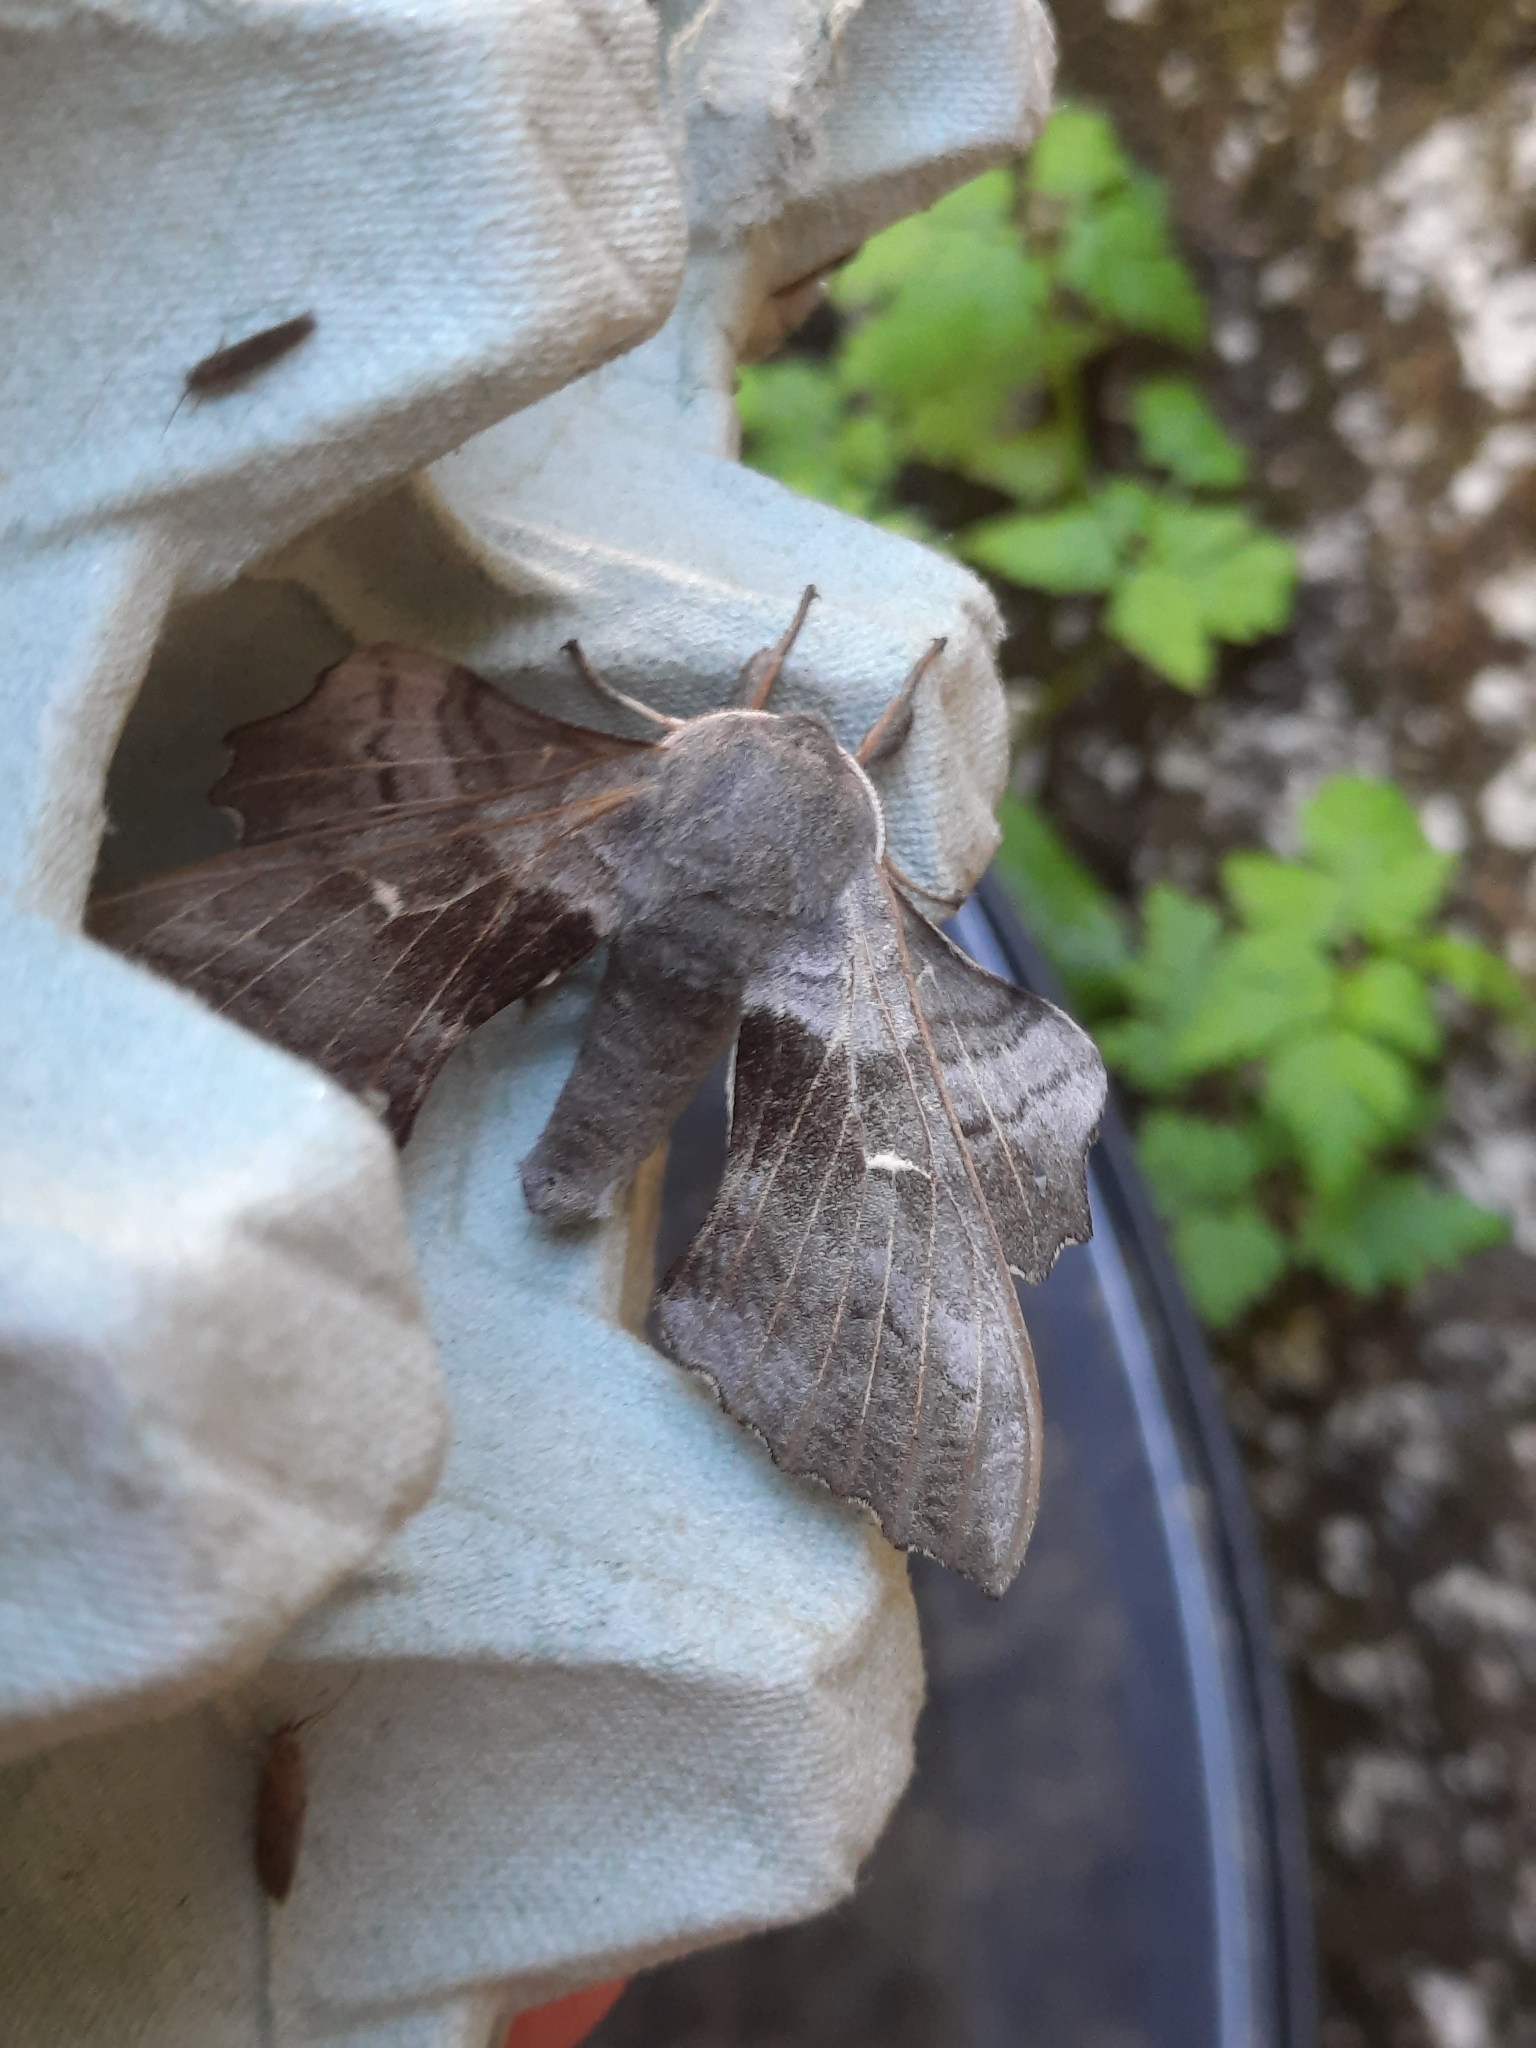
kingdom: Animalia
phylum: Arthropoda
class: Insecta
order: Lepidoptera
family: Sphingidae
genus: Laothoe
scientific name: Laothoe populi
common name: Poplar hawk-moth
